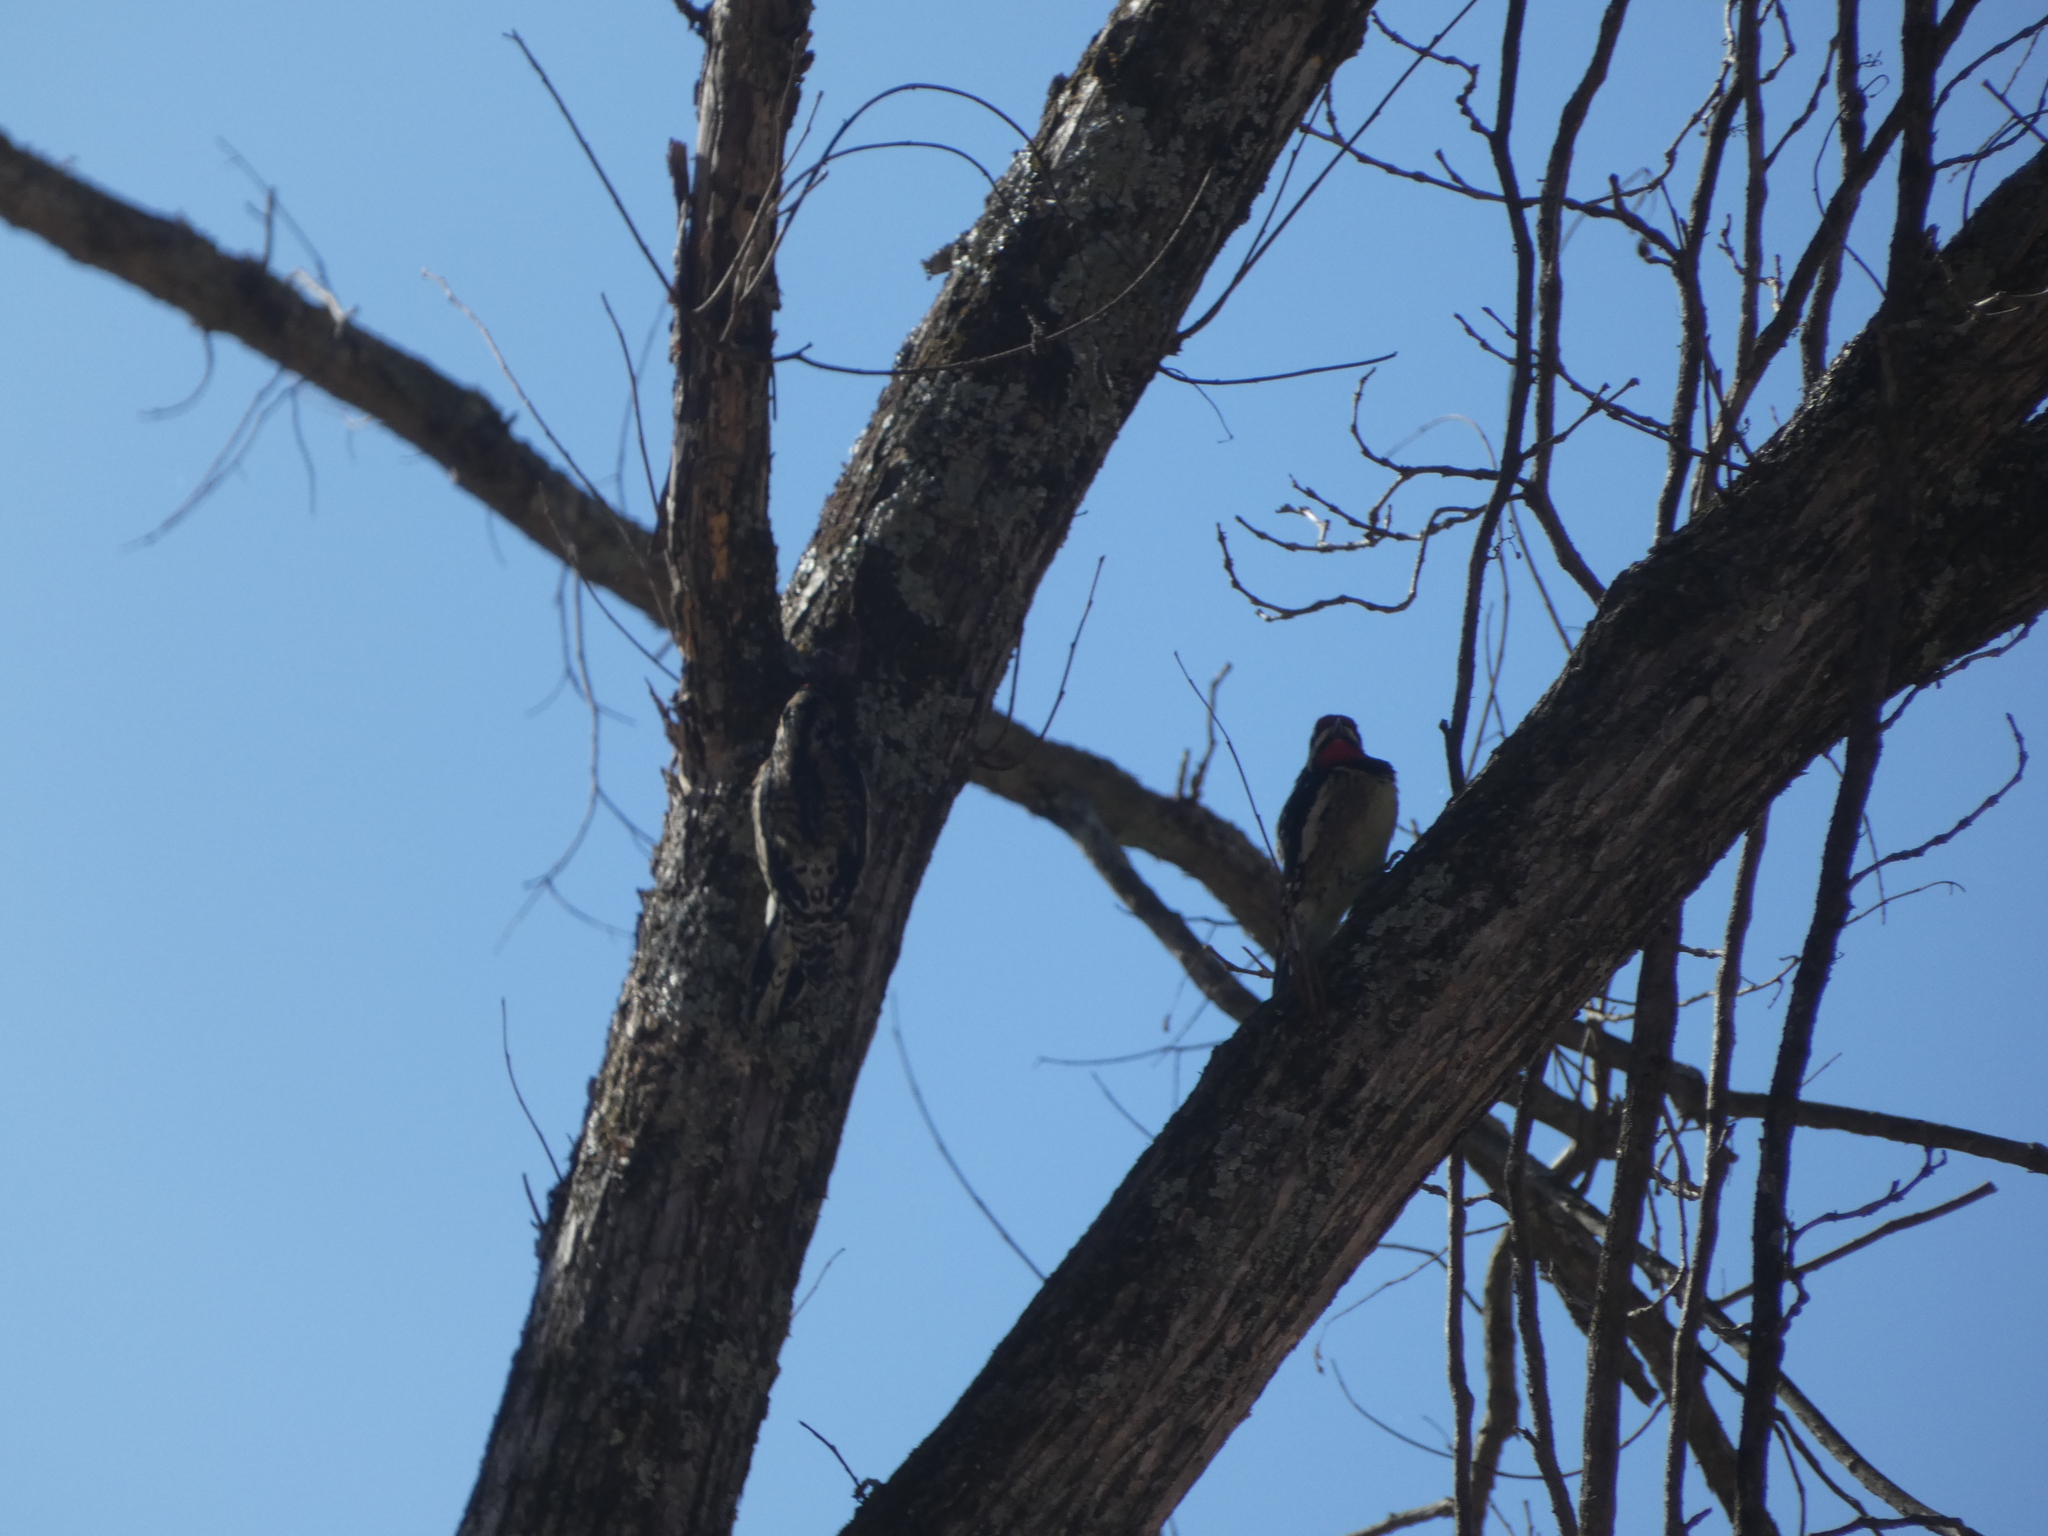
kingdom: Animalia
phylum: Chordata
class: Aves
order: Piciformes
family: Picidae
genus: Sphyrapicus
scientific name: Sphyrapicus varius
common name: Yellow-bellied sapsucker
